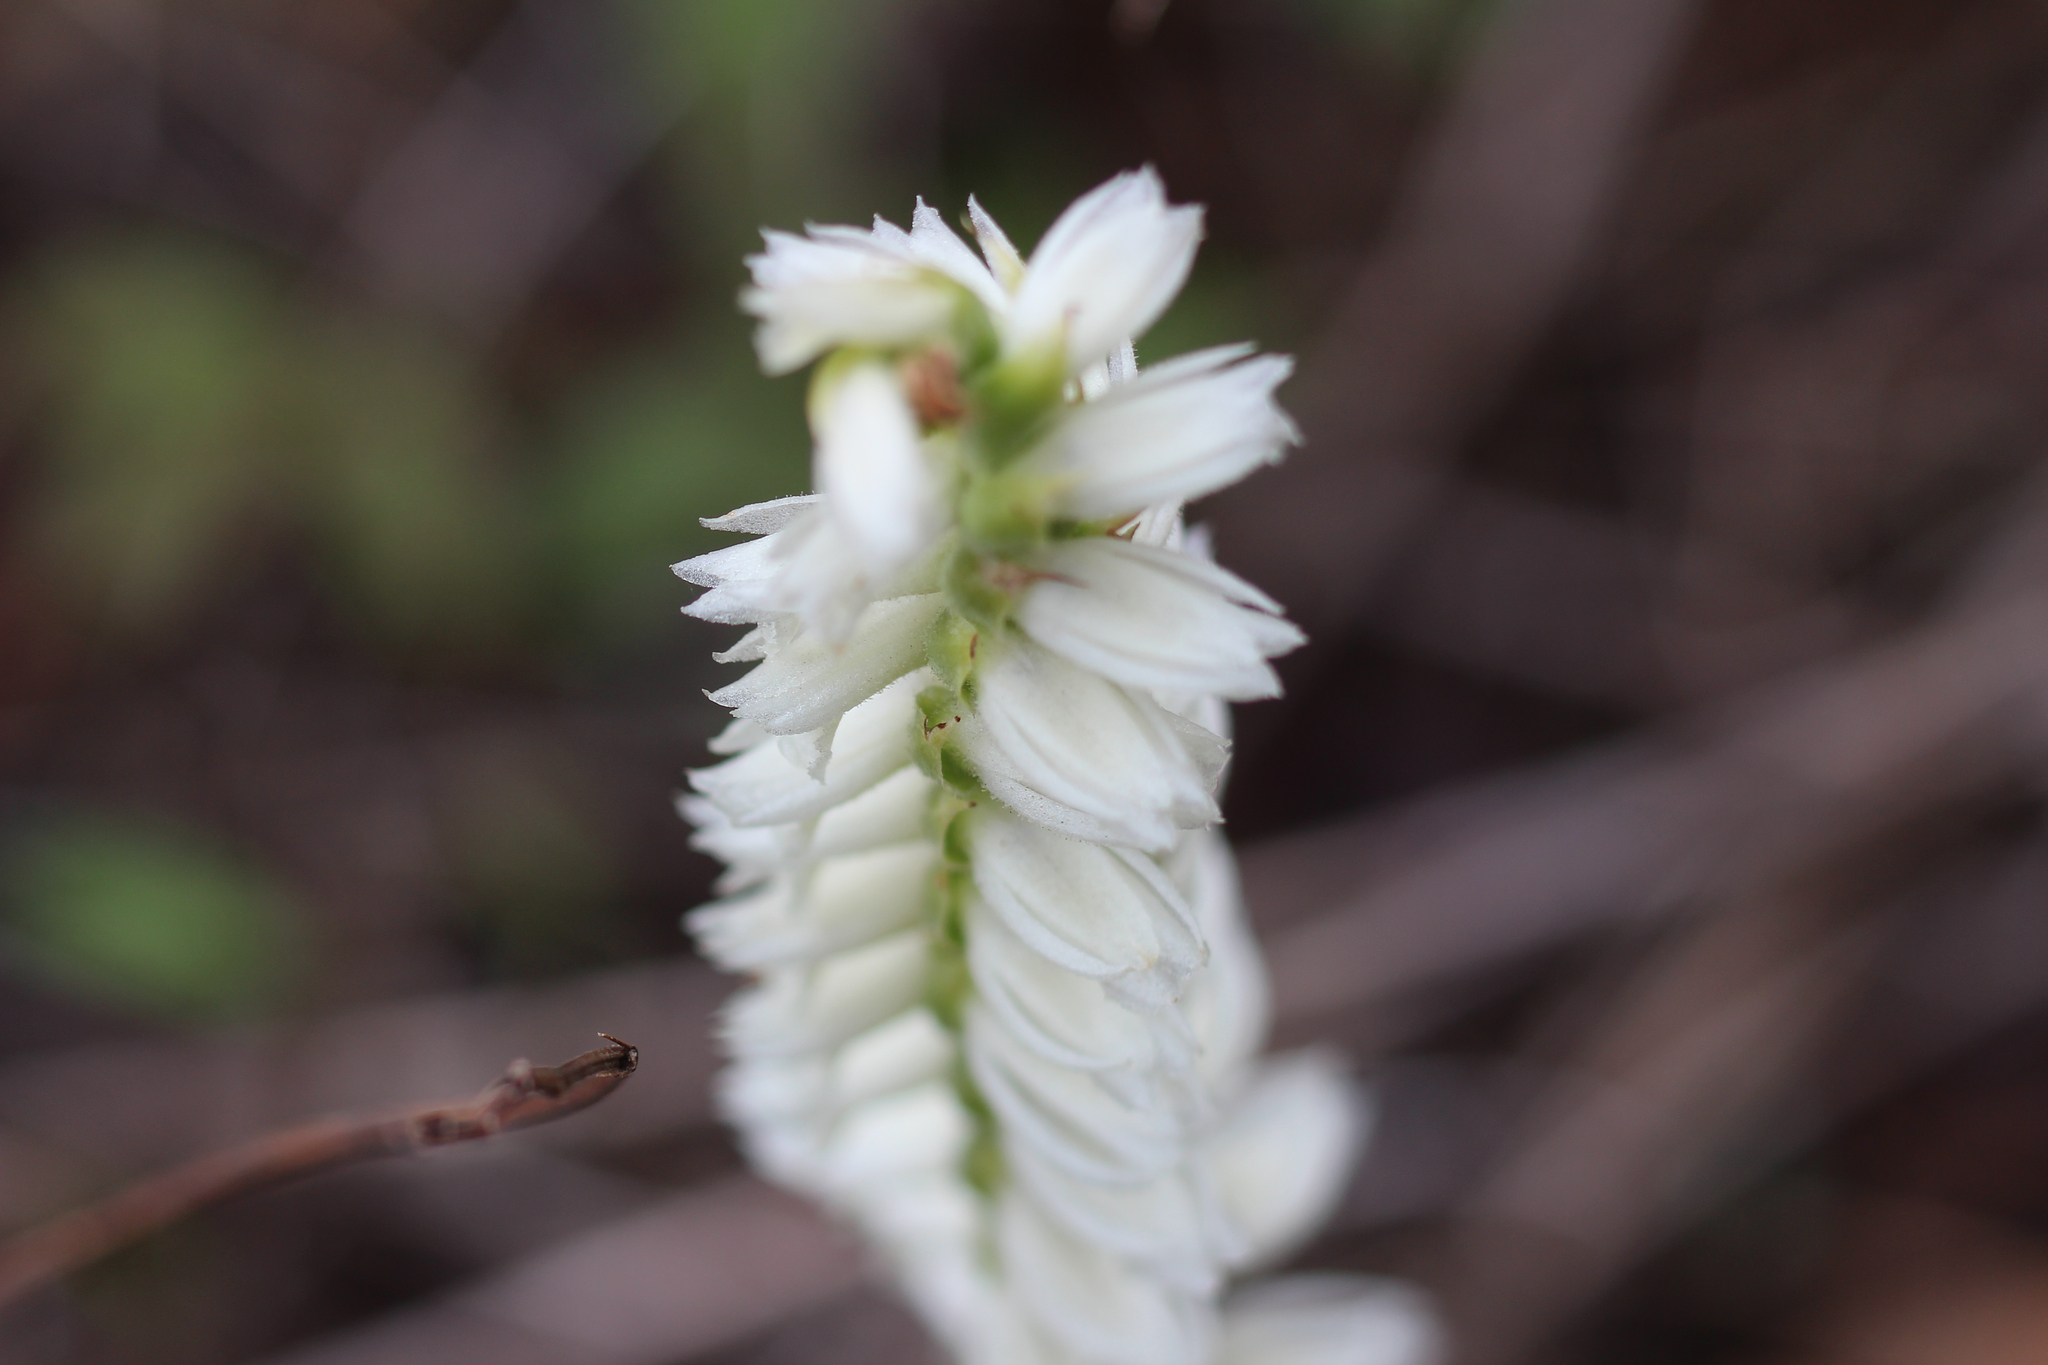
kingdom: Plantae
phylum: Tracheophyta
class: Liliopsida
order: Asparagales
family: Orchidaceae
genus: Spiranthes
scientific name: Spiranthes magnicamporum
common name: Great plains ladies'-tresses
